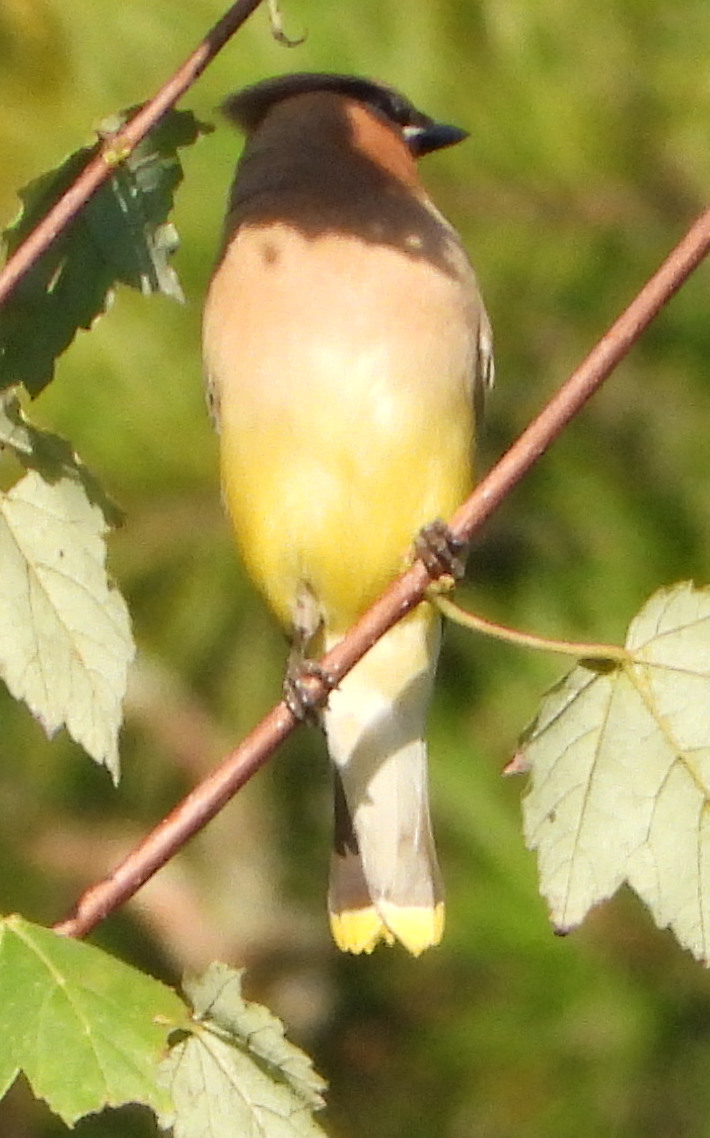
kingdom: Animalia
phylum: Chordata
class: Aves
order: Passeriformes
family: Bombycillidae
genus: Bombycilla
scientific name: Bombycilla cedrorum
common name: Cedar waxwing
